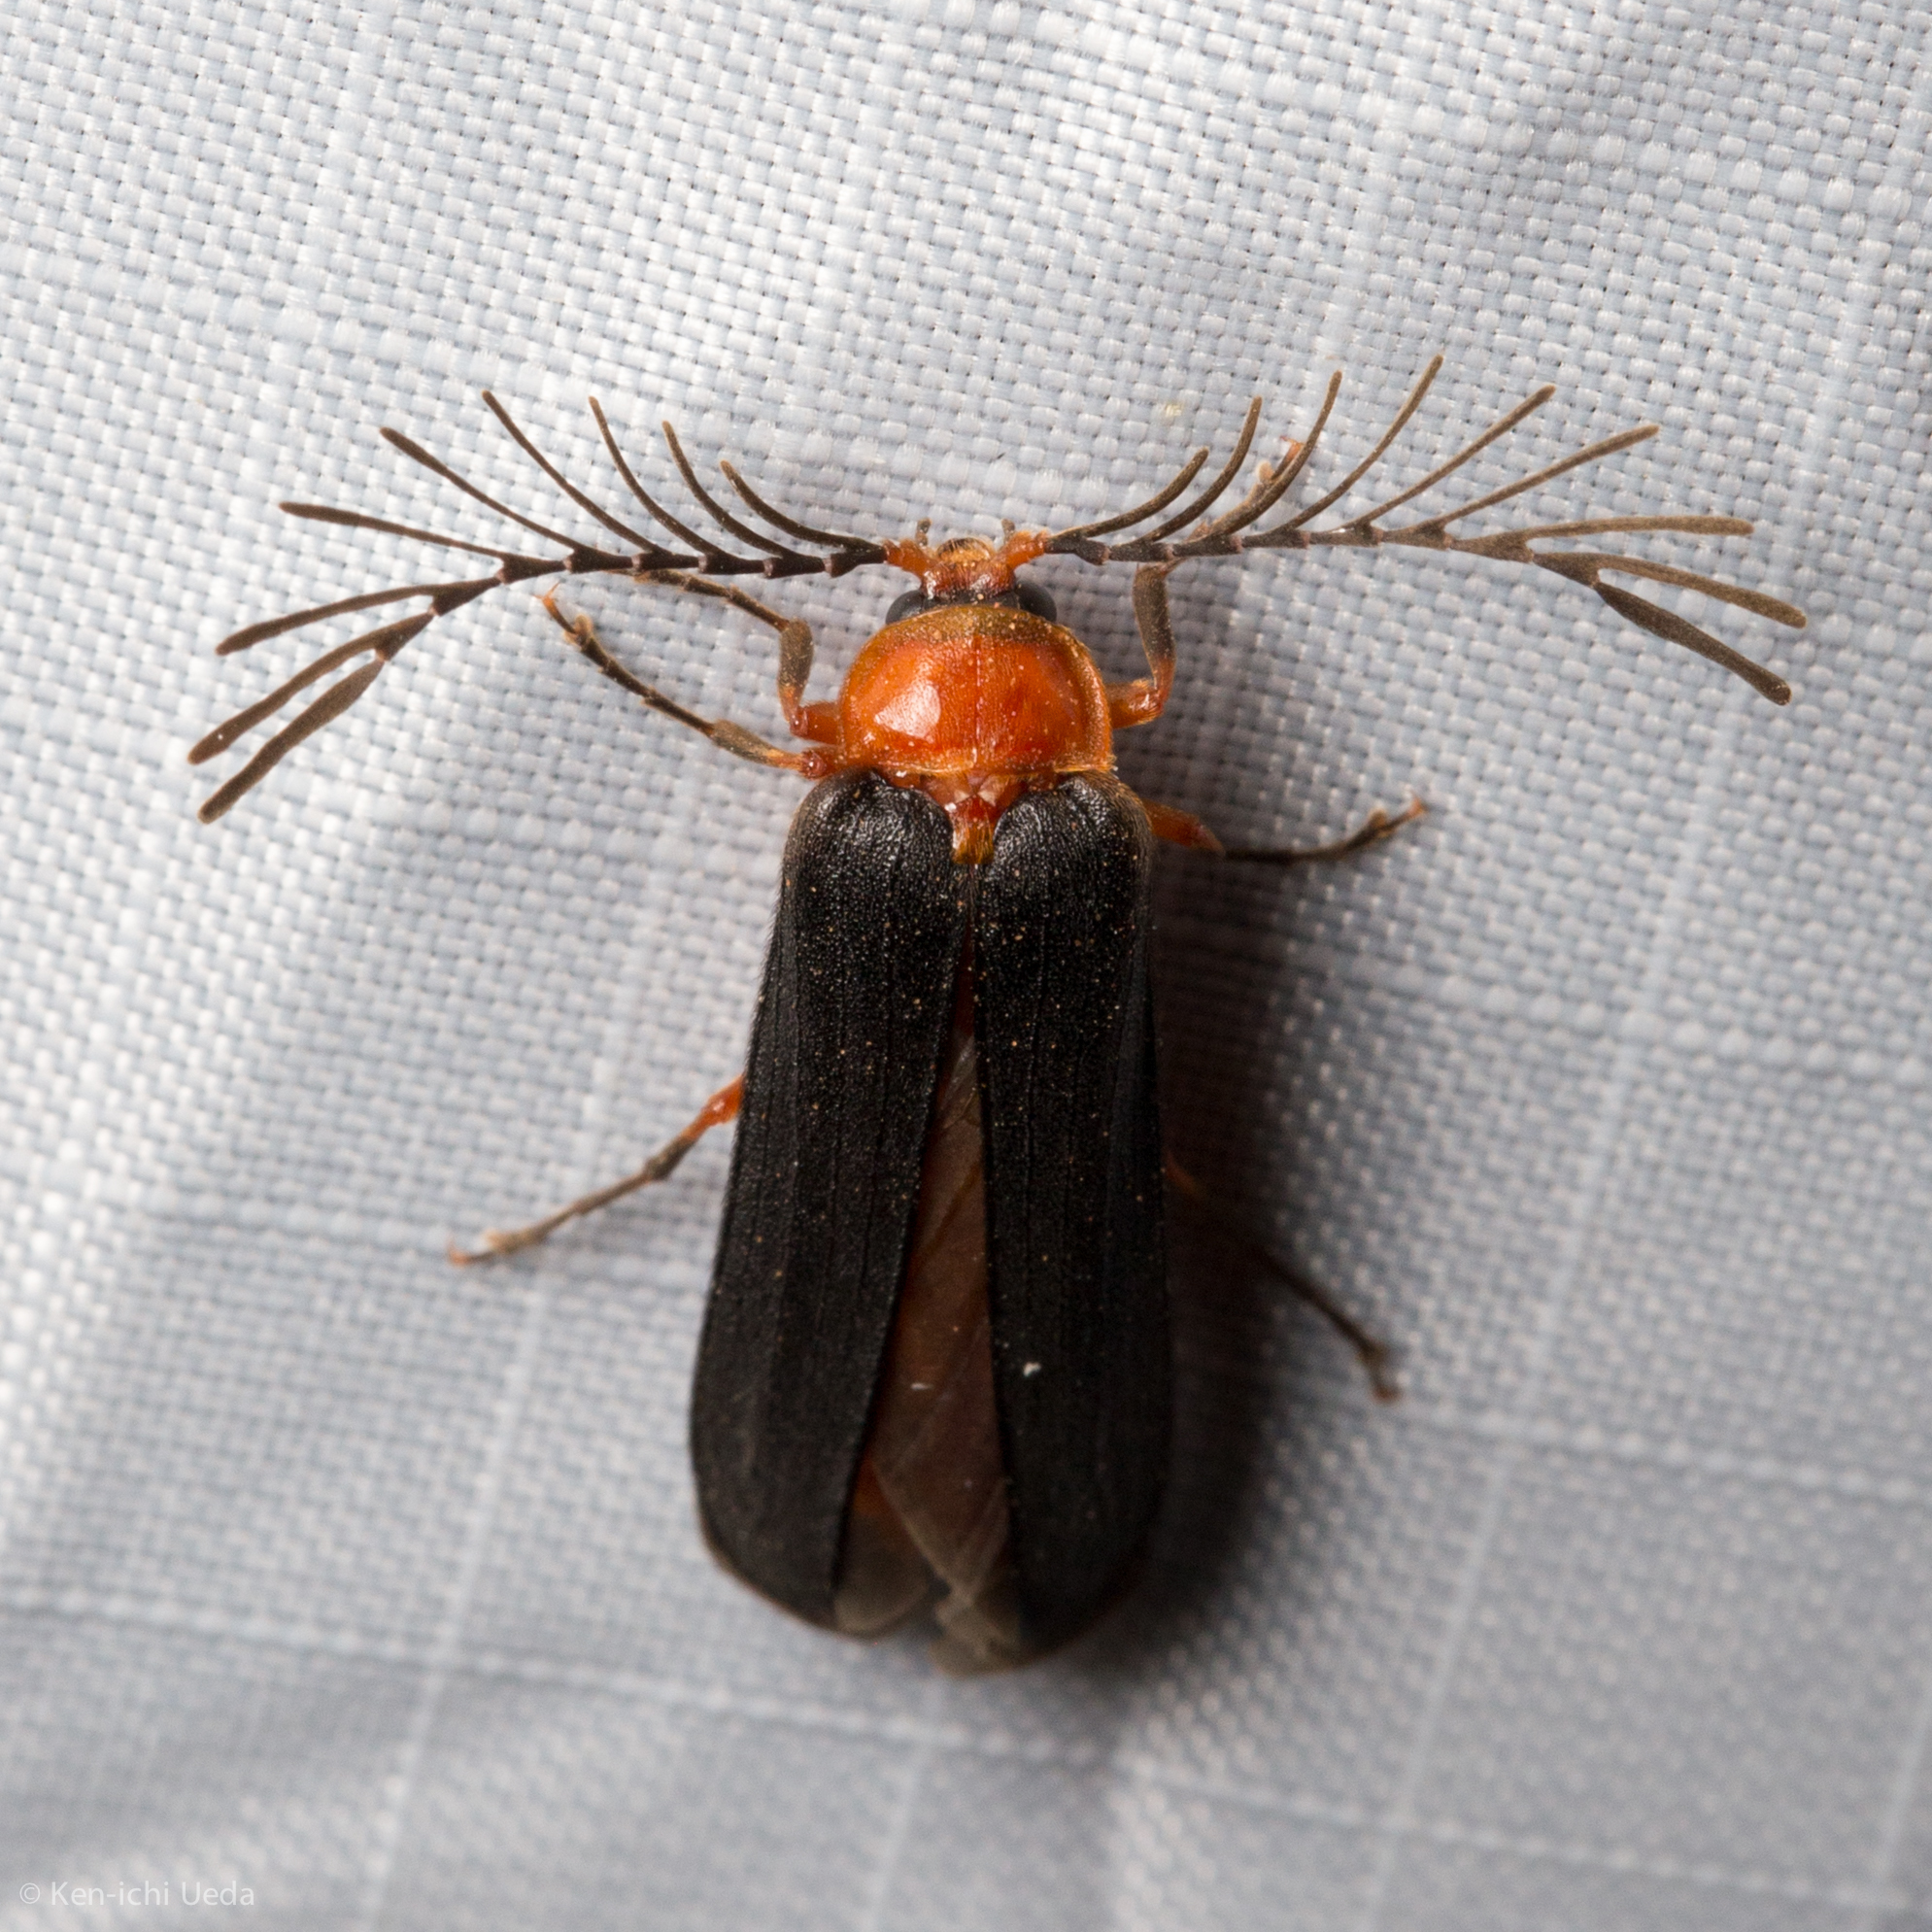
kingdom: Animalia
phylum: Arthropoda
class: Insecta
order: Coleoptera
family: Lampyridae
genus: Pterotus
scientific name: Pterotus obscuripennis
